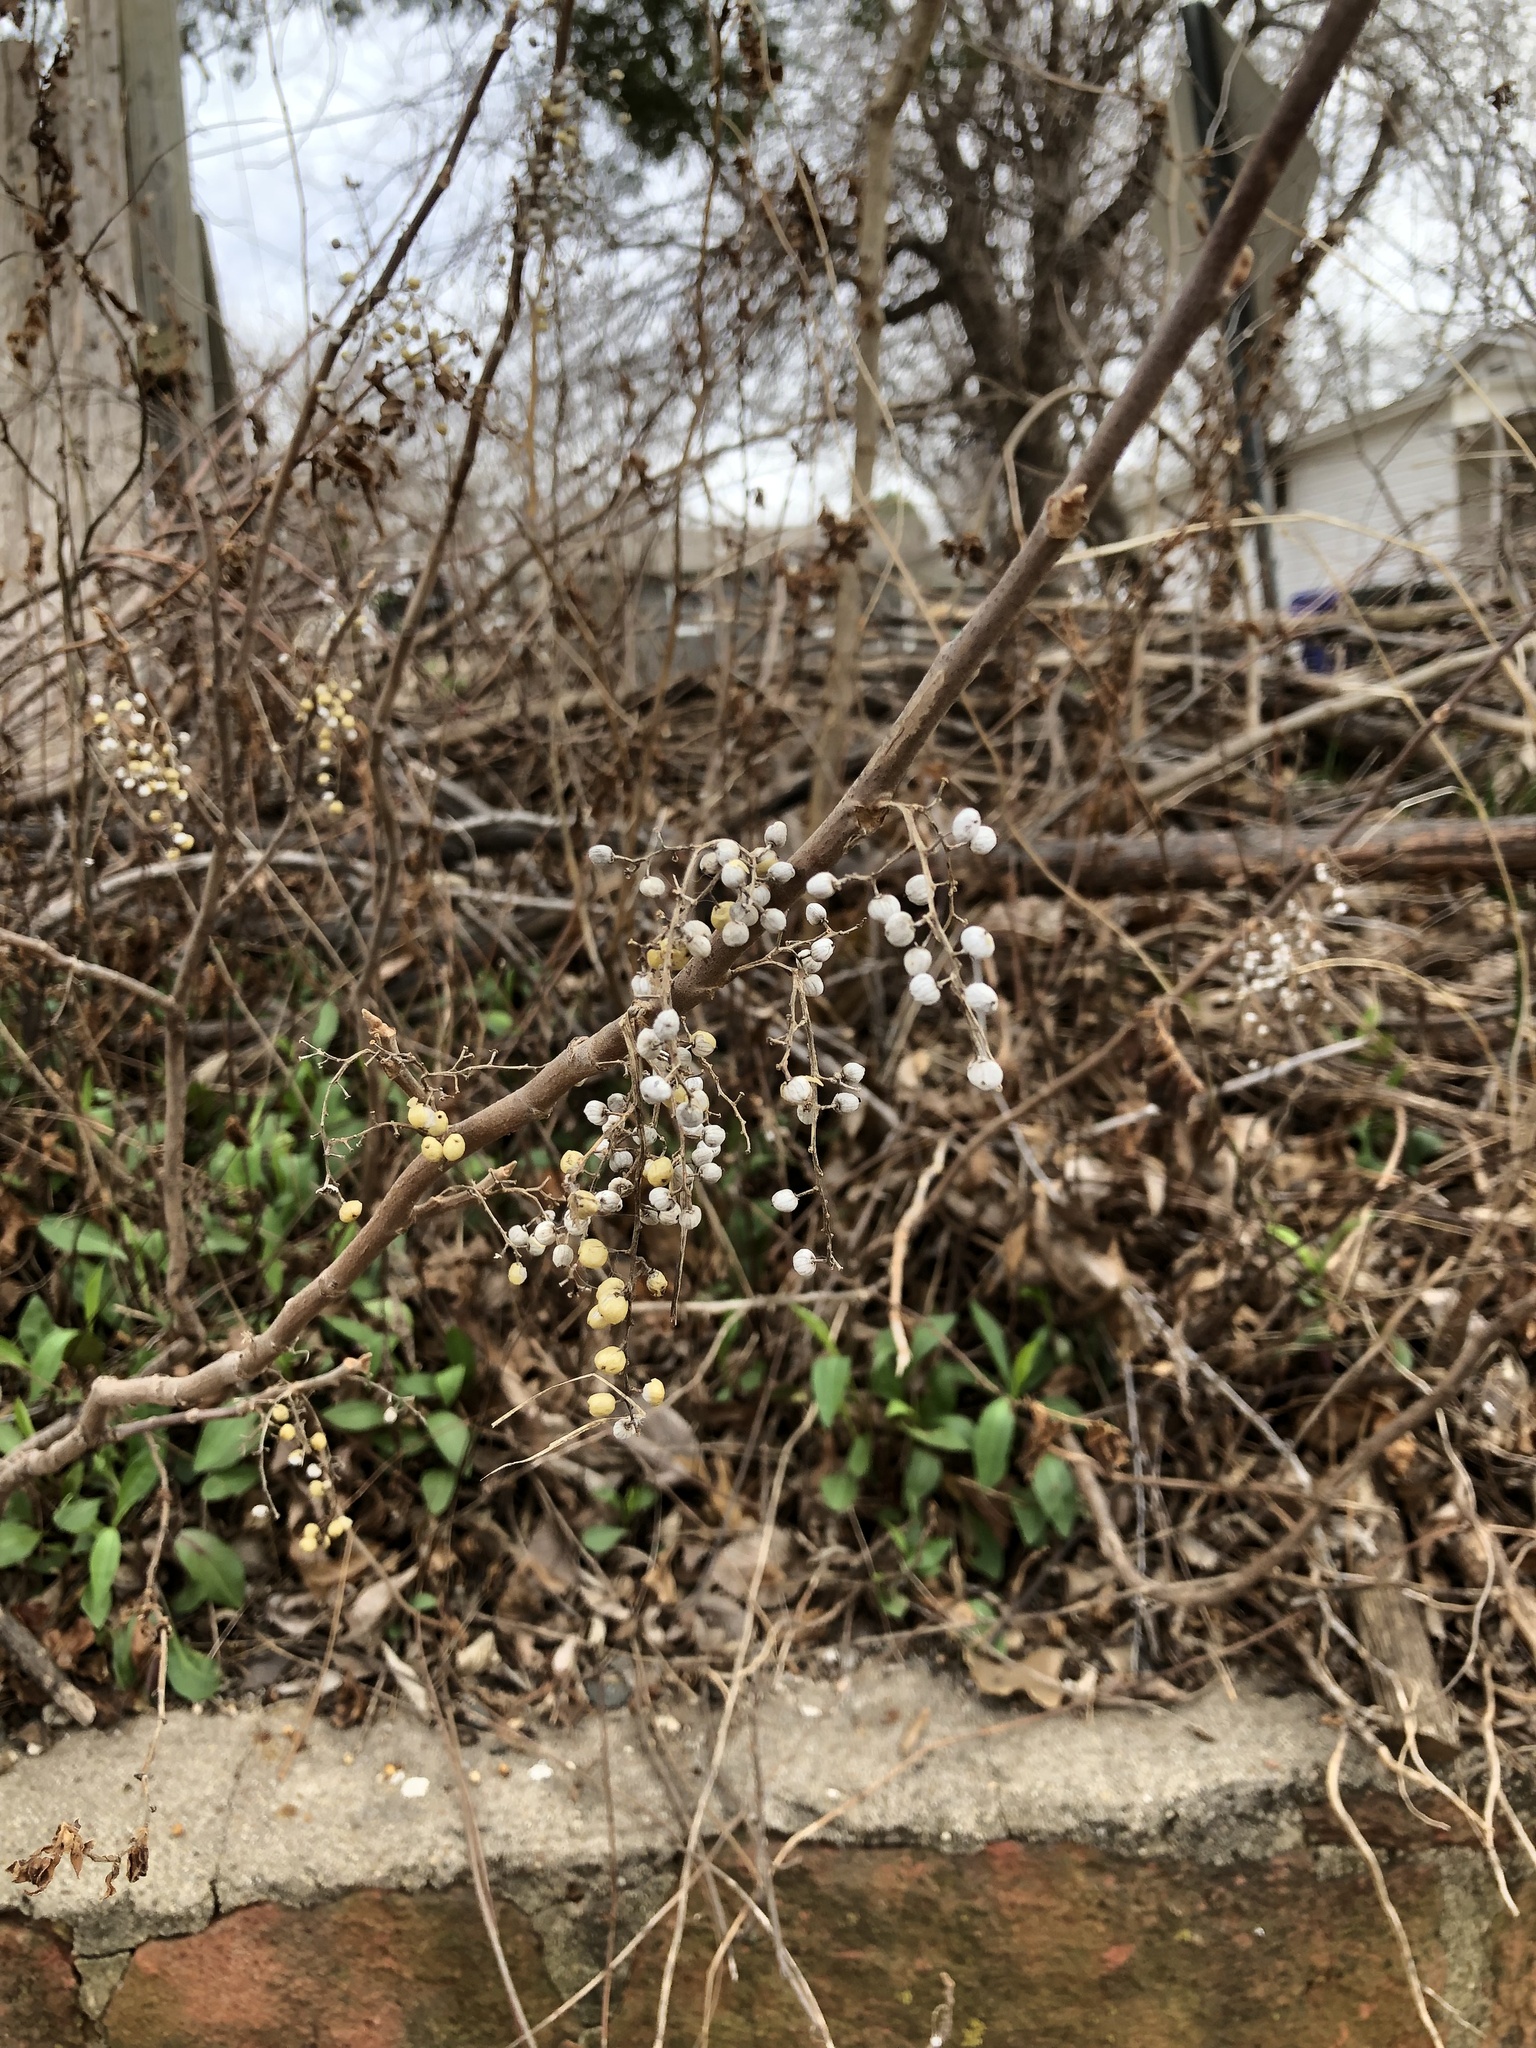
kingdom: Plantae
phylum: Tracheophyta
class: Magnoliopsida
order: Sapindales
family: Anacardiaceae
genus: Toxicodendron
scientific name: Toxicodendron radicans
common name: Poison ivy
